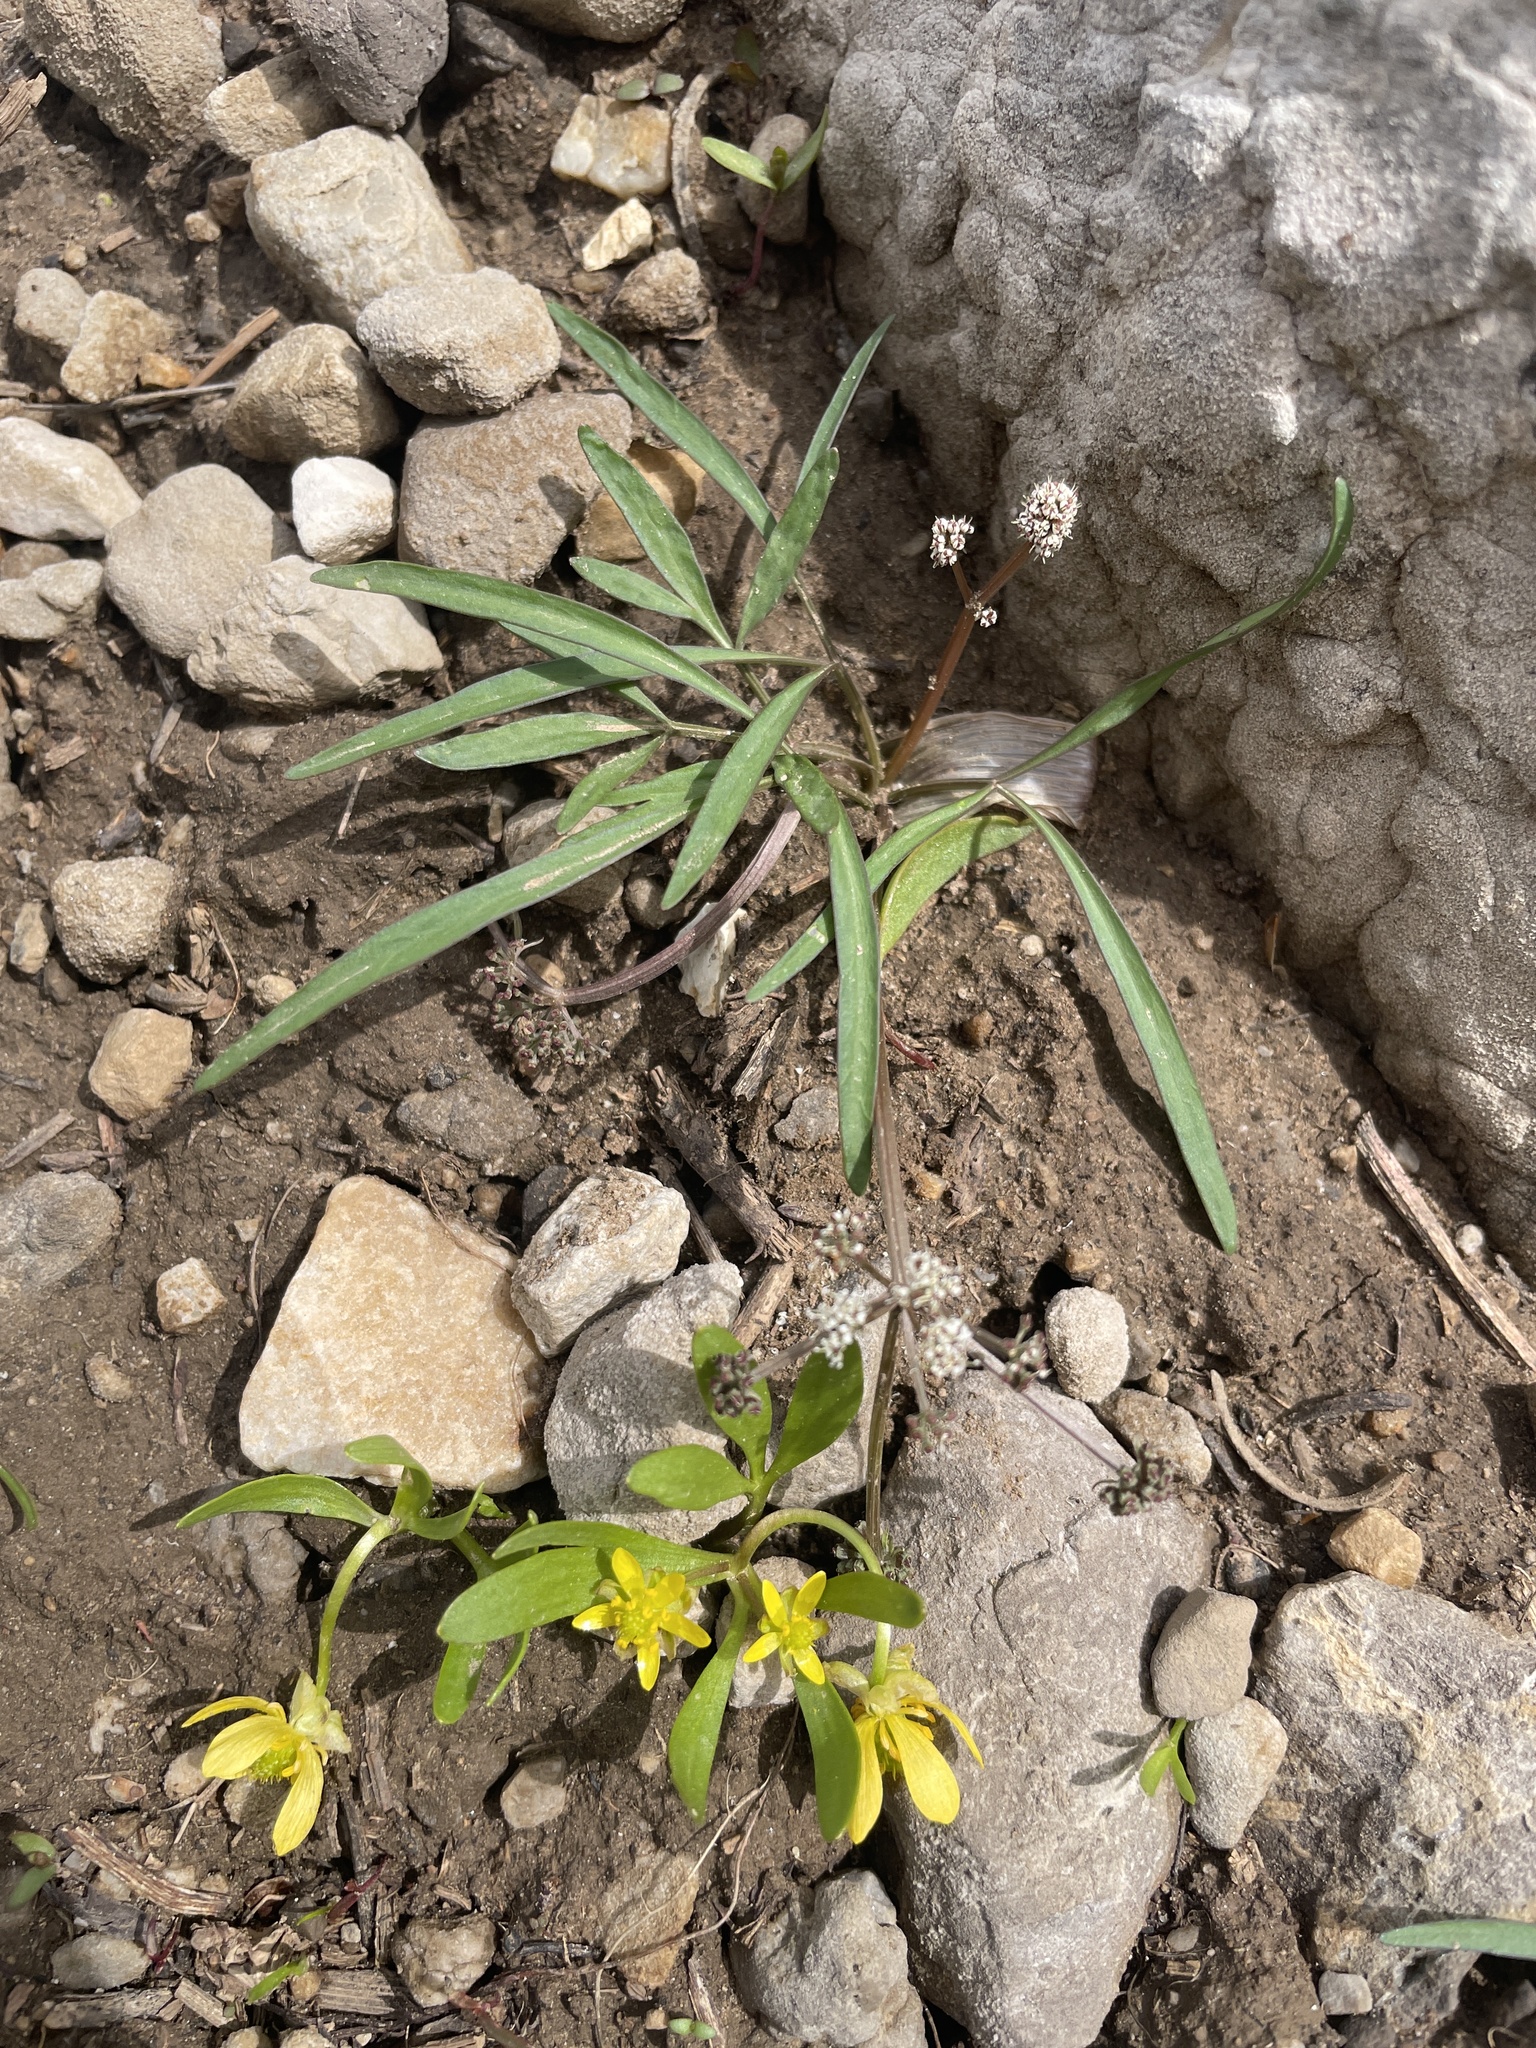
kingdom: Plantae
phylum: Tracheophyta
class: Magnoliopsida
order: Apiales
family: Apiaceae
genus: Lomatium
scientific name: Lomatium linearifolium
